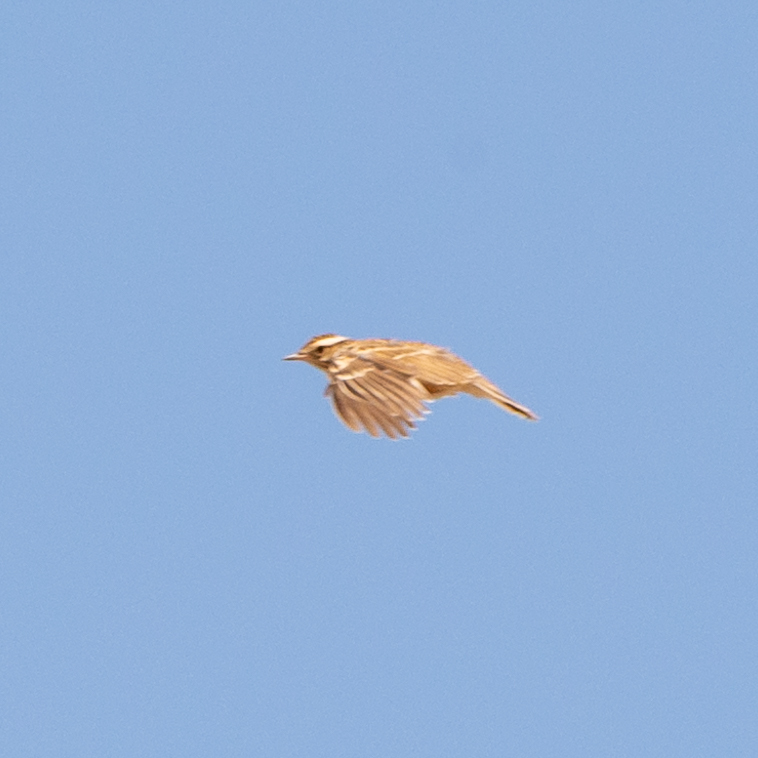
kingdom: Animalia
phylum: Chordata
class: Aves
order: Passeriformes
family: Alaudidae
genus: Lullula
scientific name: Lullula arborea
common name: Woodlark
